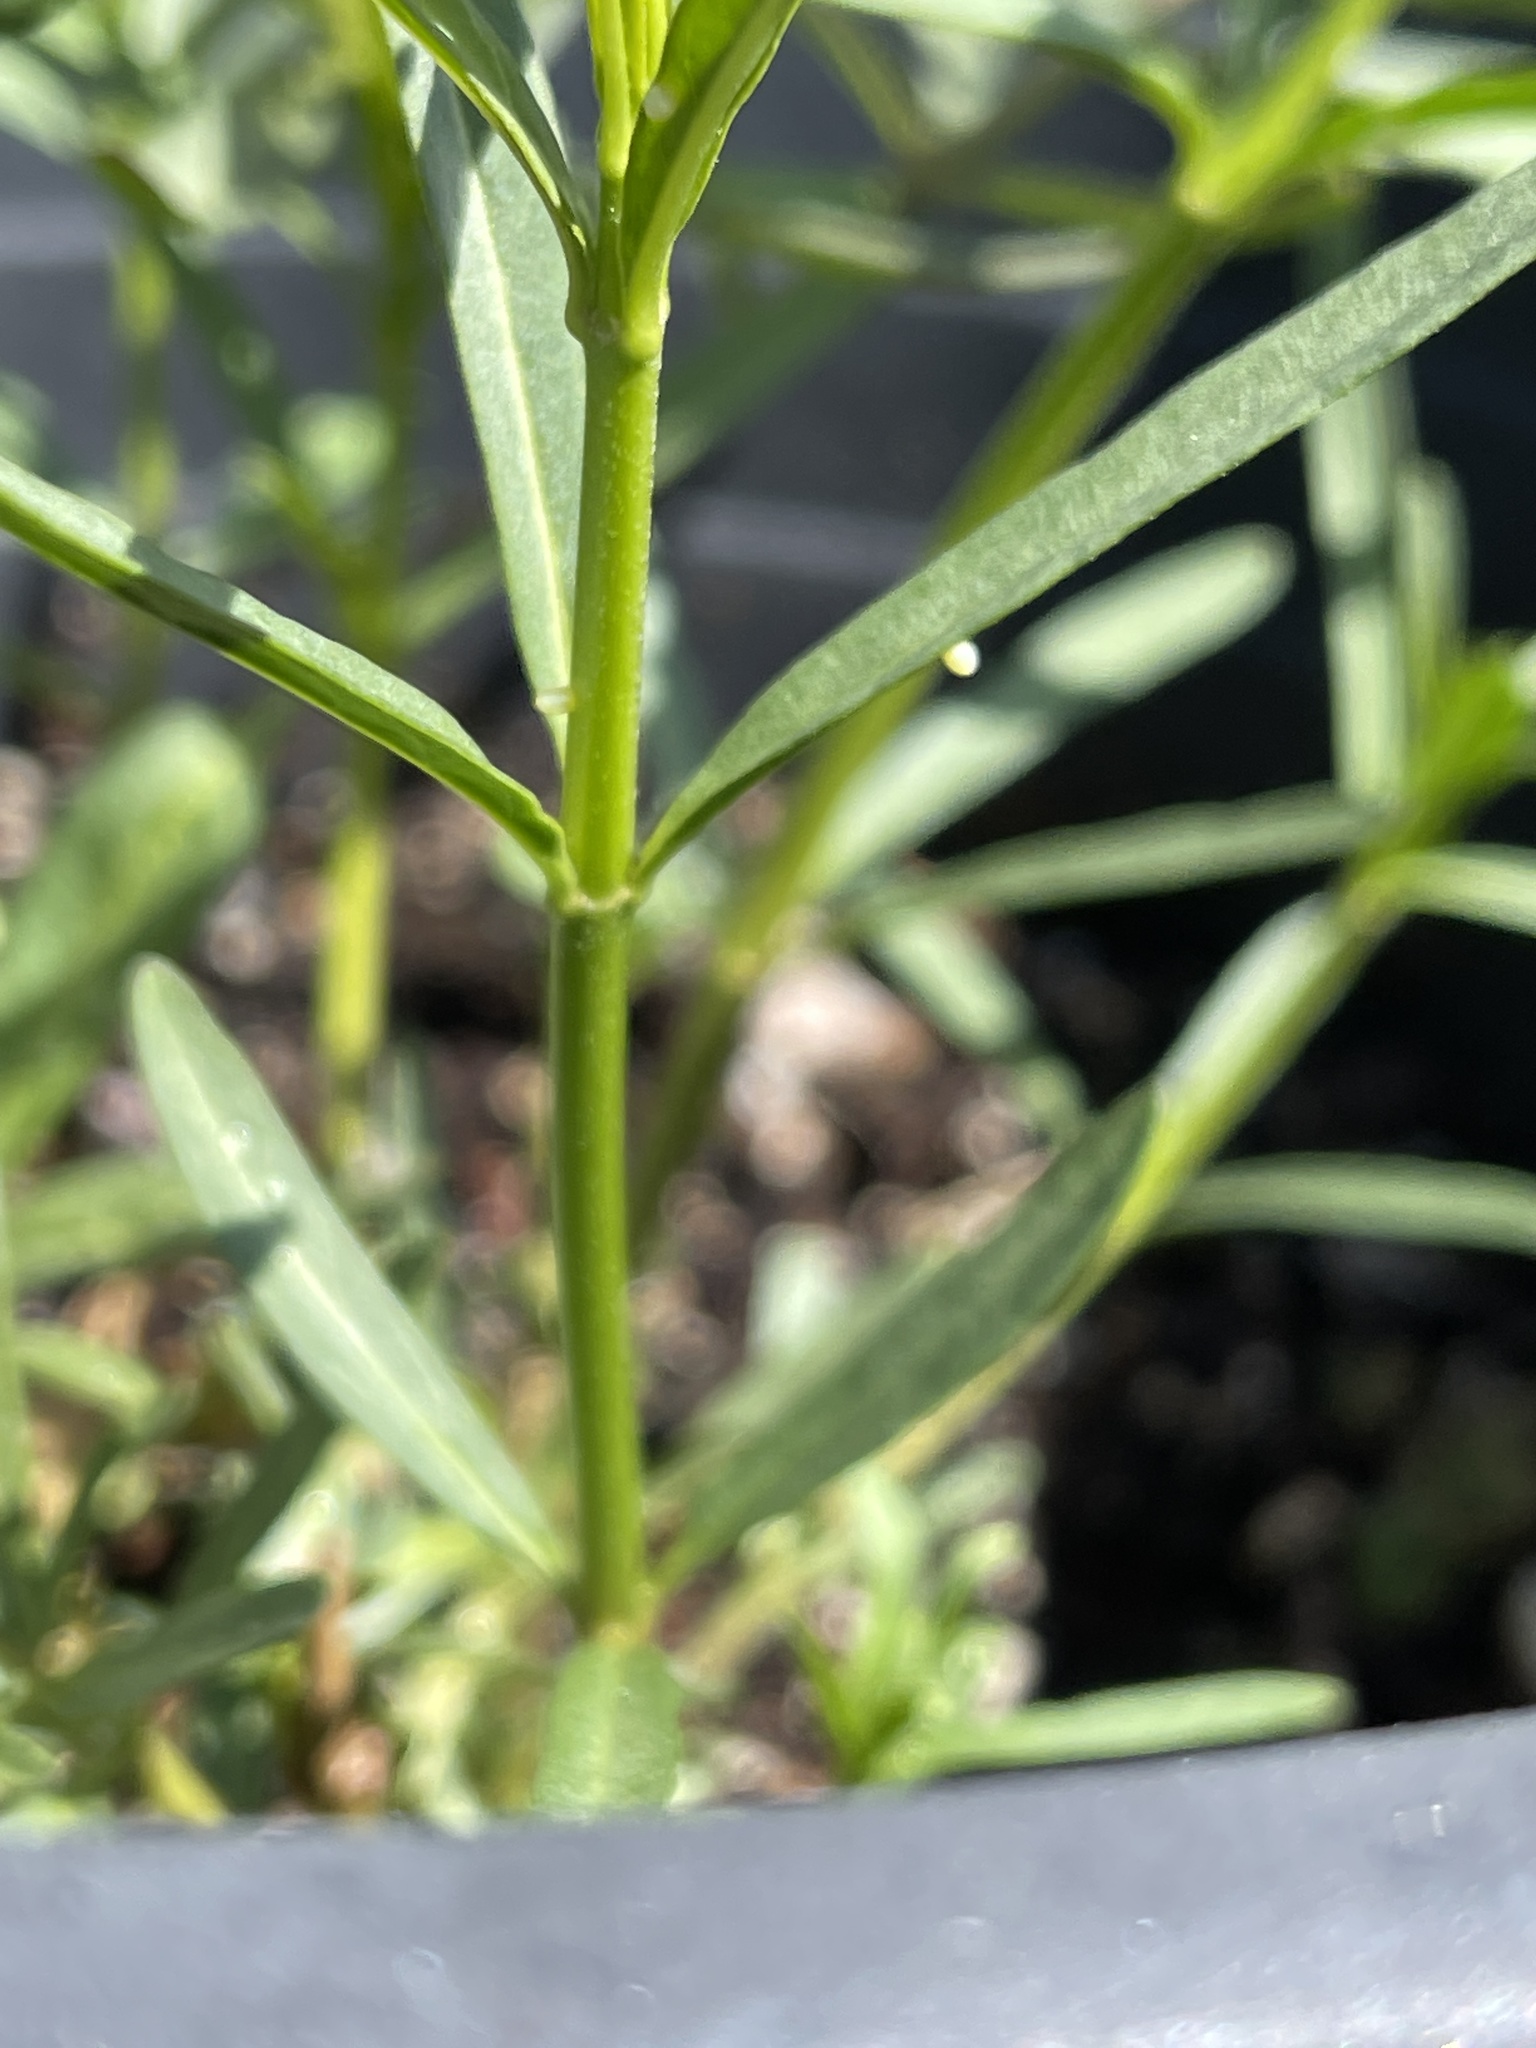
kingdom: Animalia
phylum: Arthropoda
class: Insecta
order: Lepidoptera
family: Nymphalidae
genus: Danaus
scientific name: Danaus plexippus
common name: Monarch
